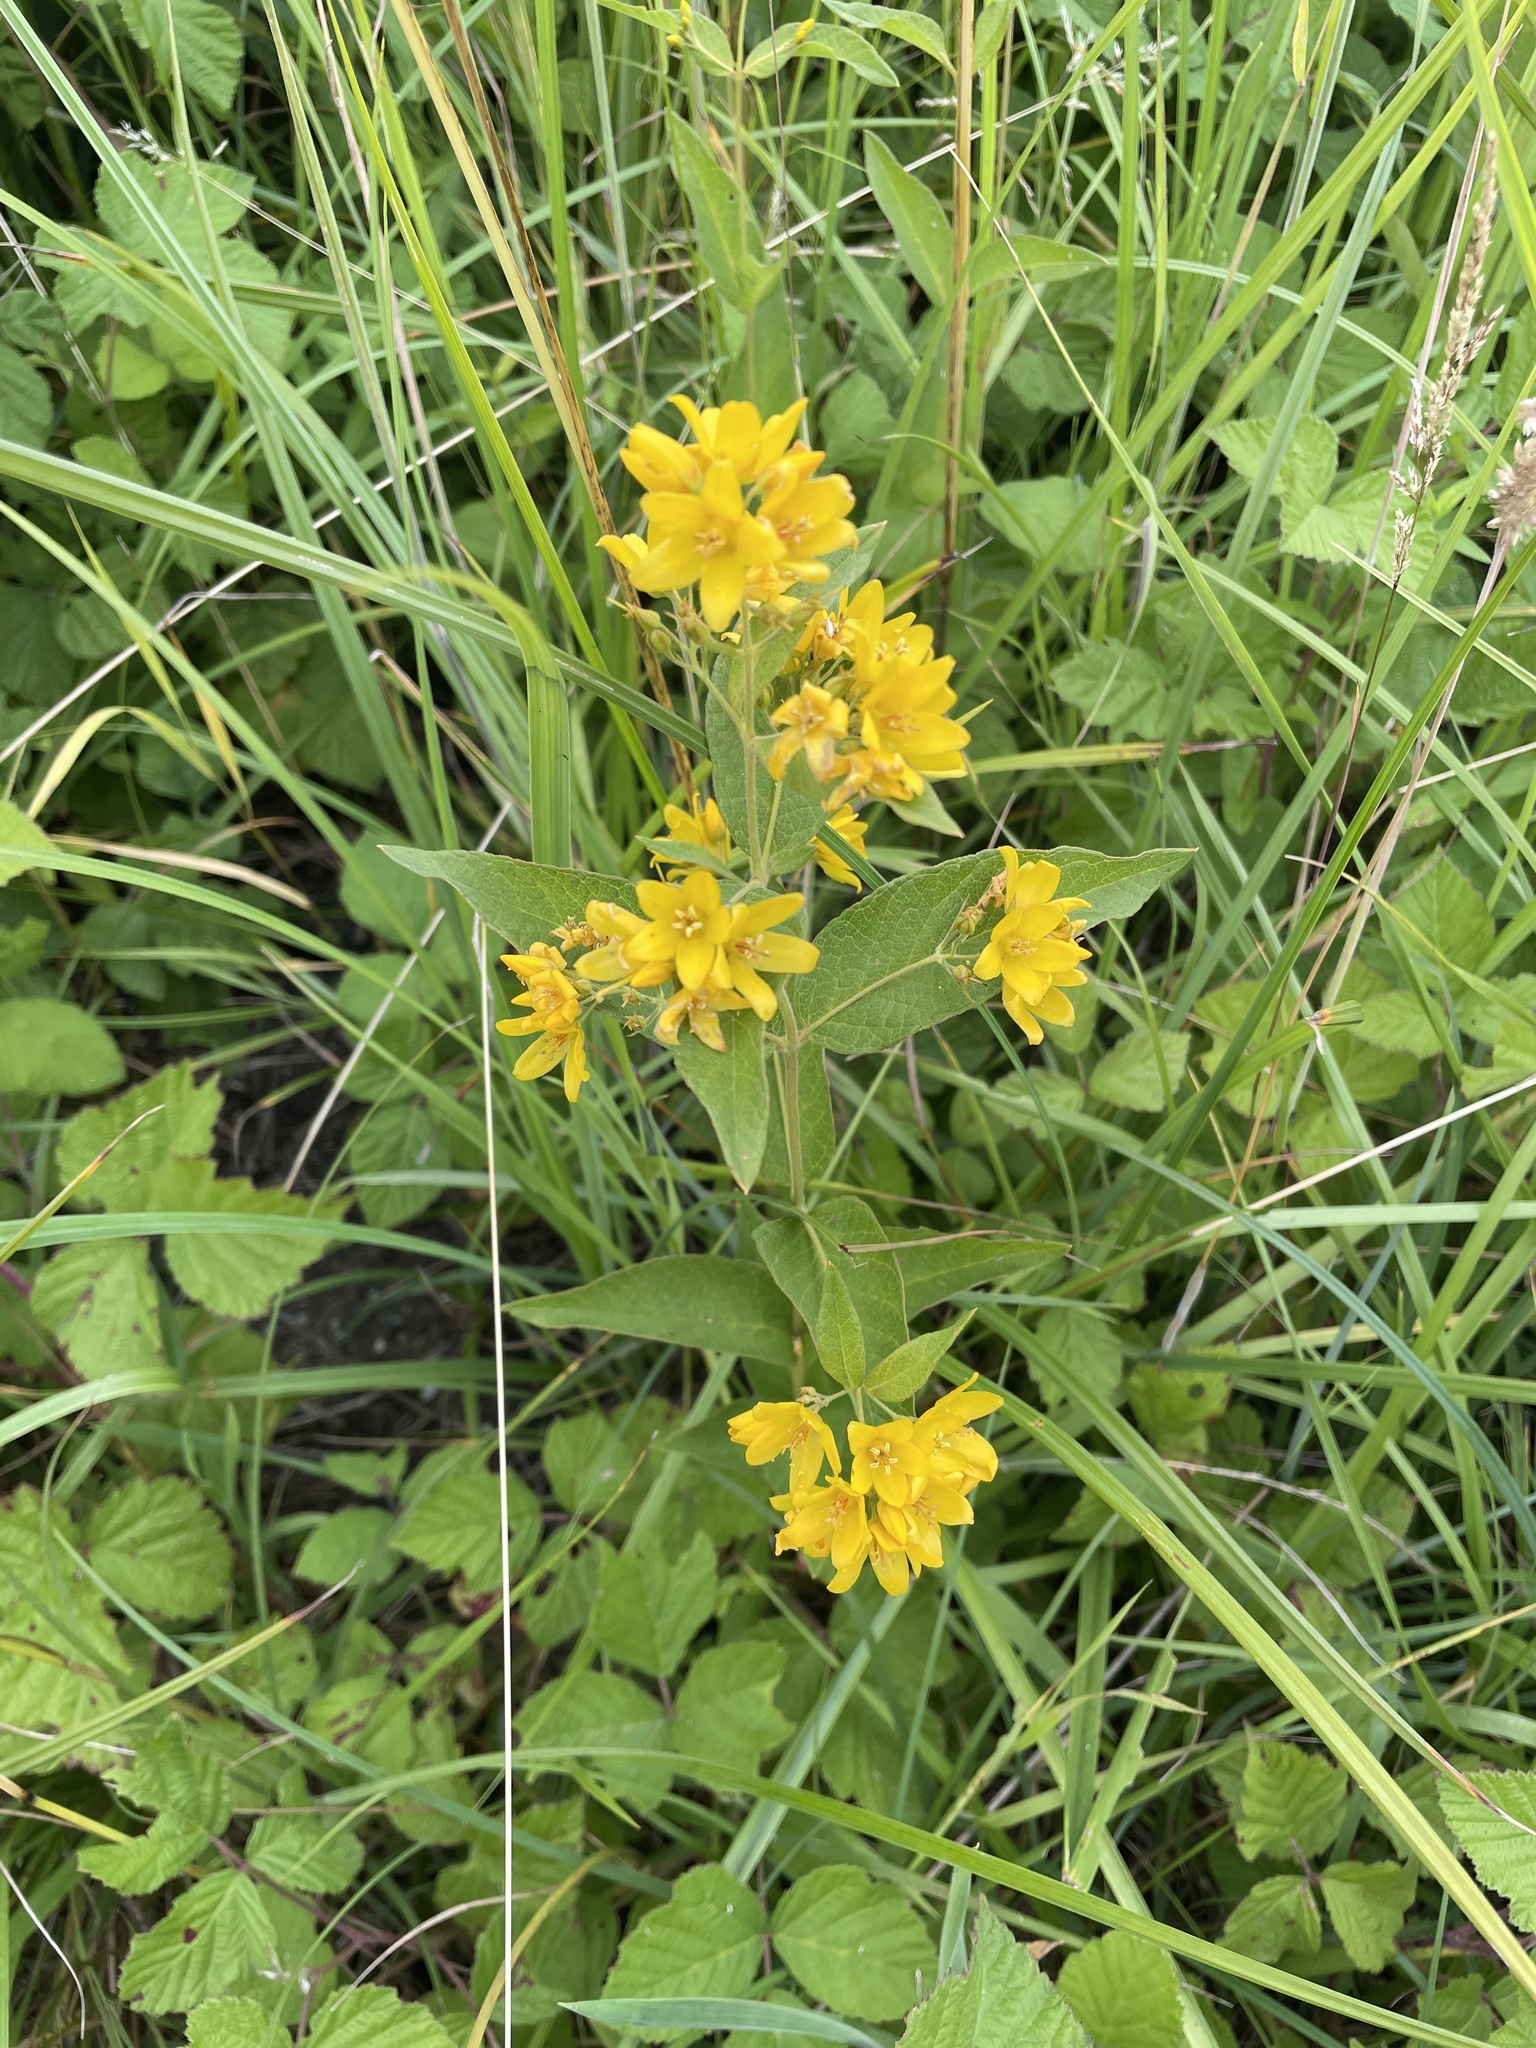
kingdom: Plantae
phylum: Tracheophyta
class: Magnoliopsida
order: Ericales
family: Primulaceae
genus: Lysimachia
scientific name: Lysimachia vulgaris
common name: Yellow loosestrife
